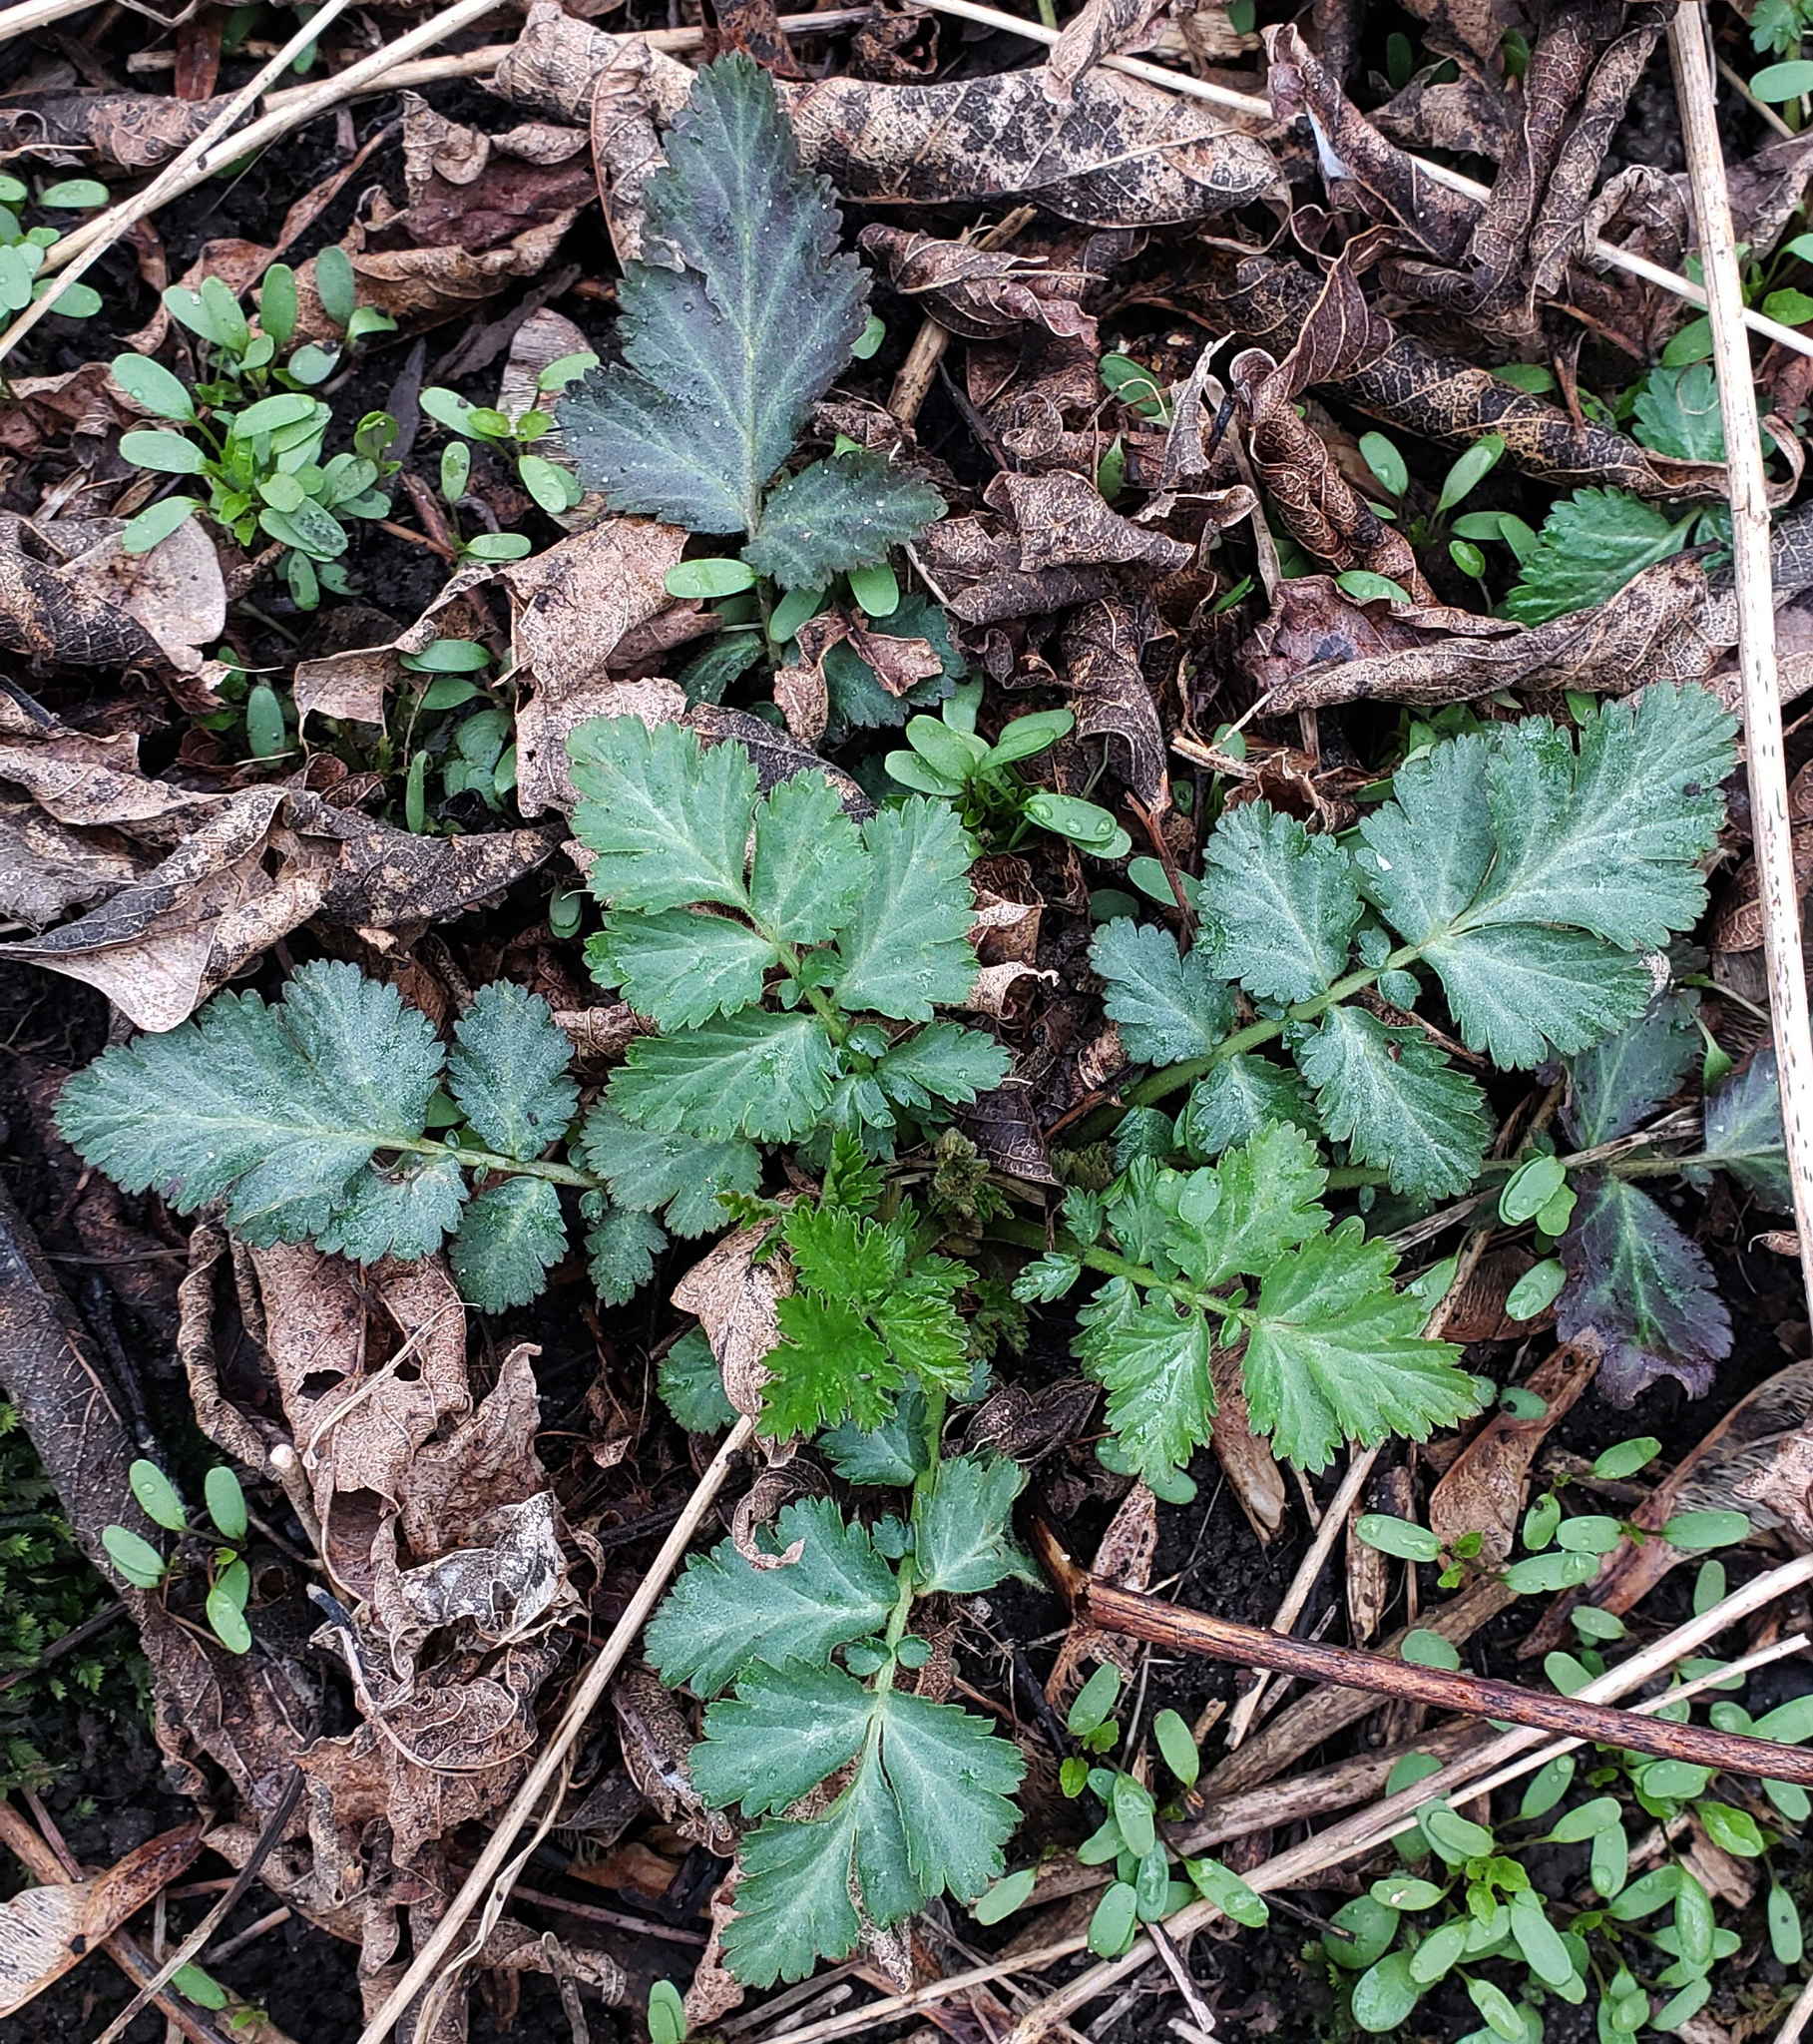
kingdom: Plantae
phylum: Tracheophyta
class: Magnoliopsida
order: Rosales
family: Rosaceae
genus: Geum
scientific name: Geum canadense
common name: White avens
